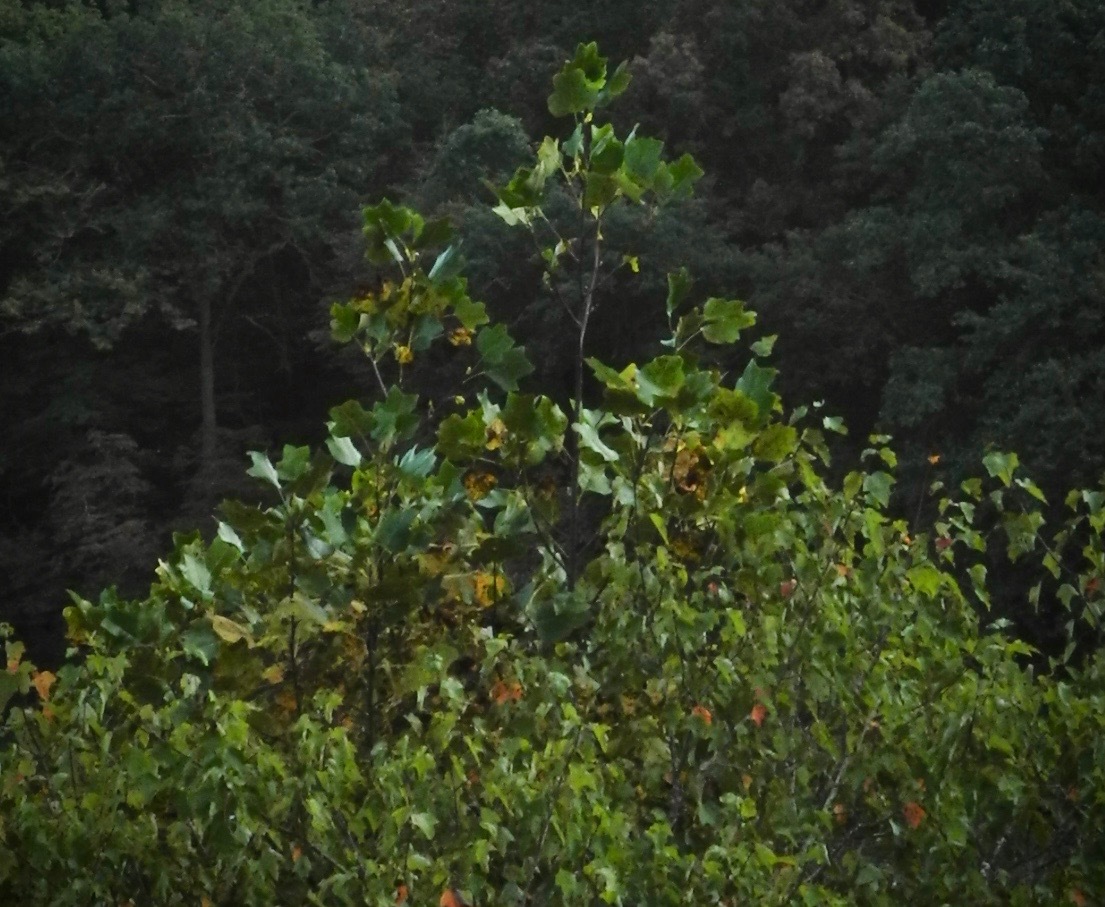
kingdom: Plantae
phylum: Tracheophyta
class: Magnoliopsida
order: Magnoliales
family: Magnoliaceae
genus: Liriodendron
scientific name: Liriodendron tulipifera
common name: Tulip tree
